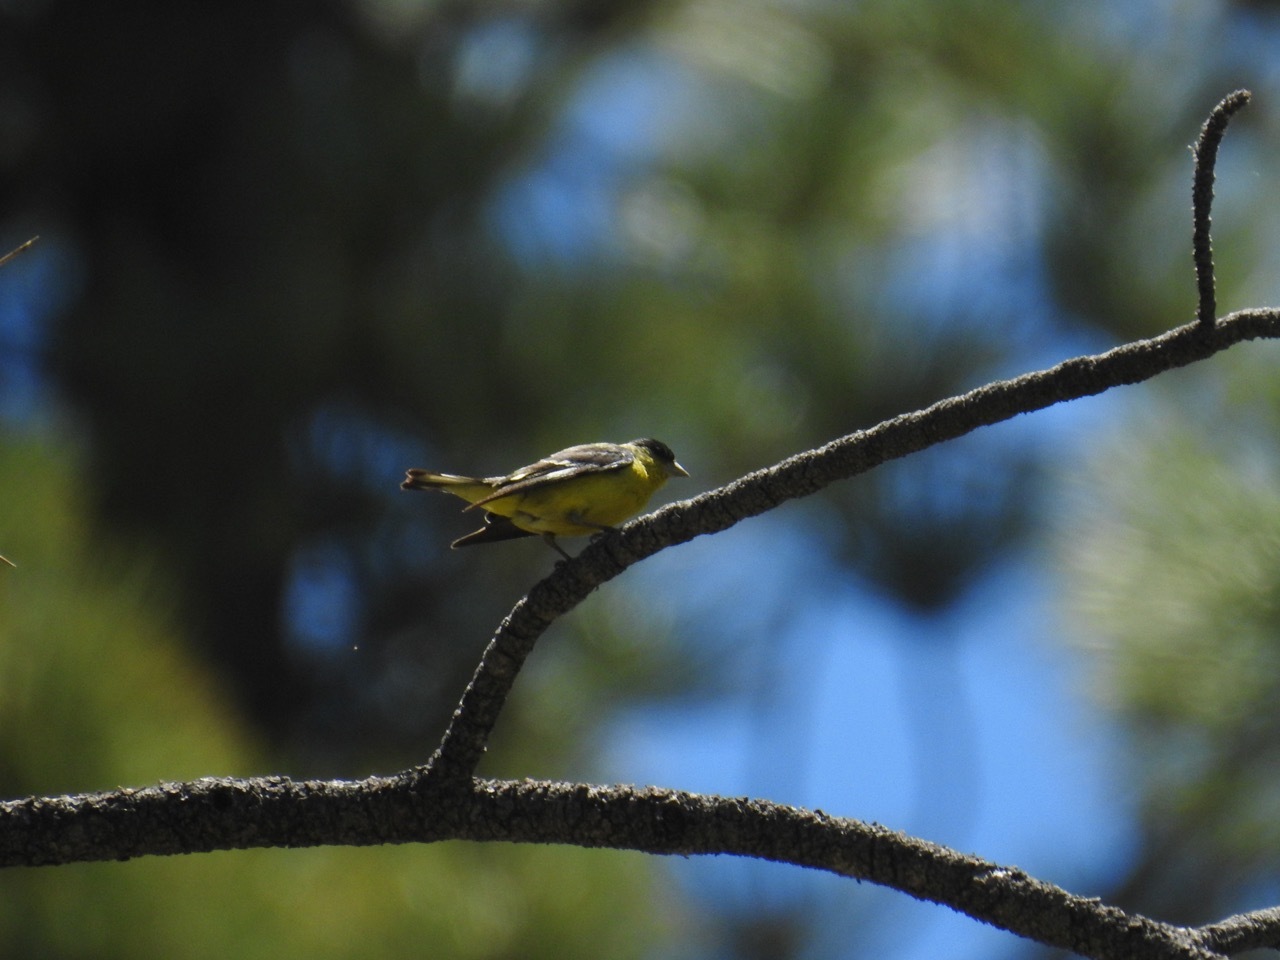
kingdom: Animalia
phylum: Chordata
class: Aves
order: Passeriformes
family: Fringillidae
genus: Spinus
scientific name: Spinus psaltria
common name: Lesser goldfinch
